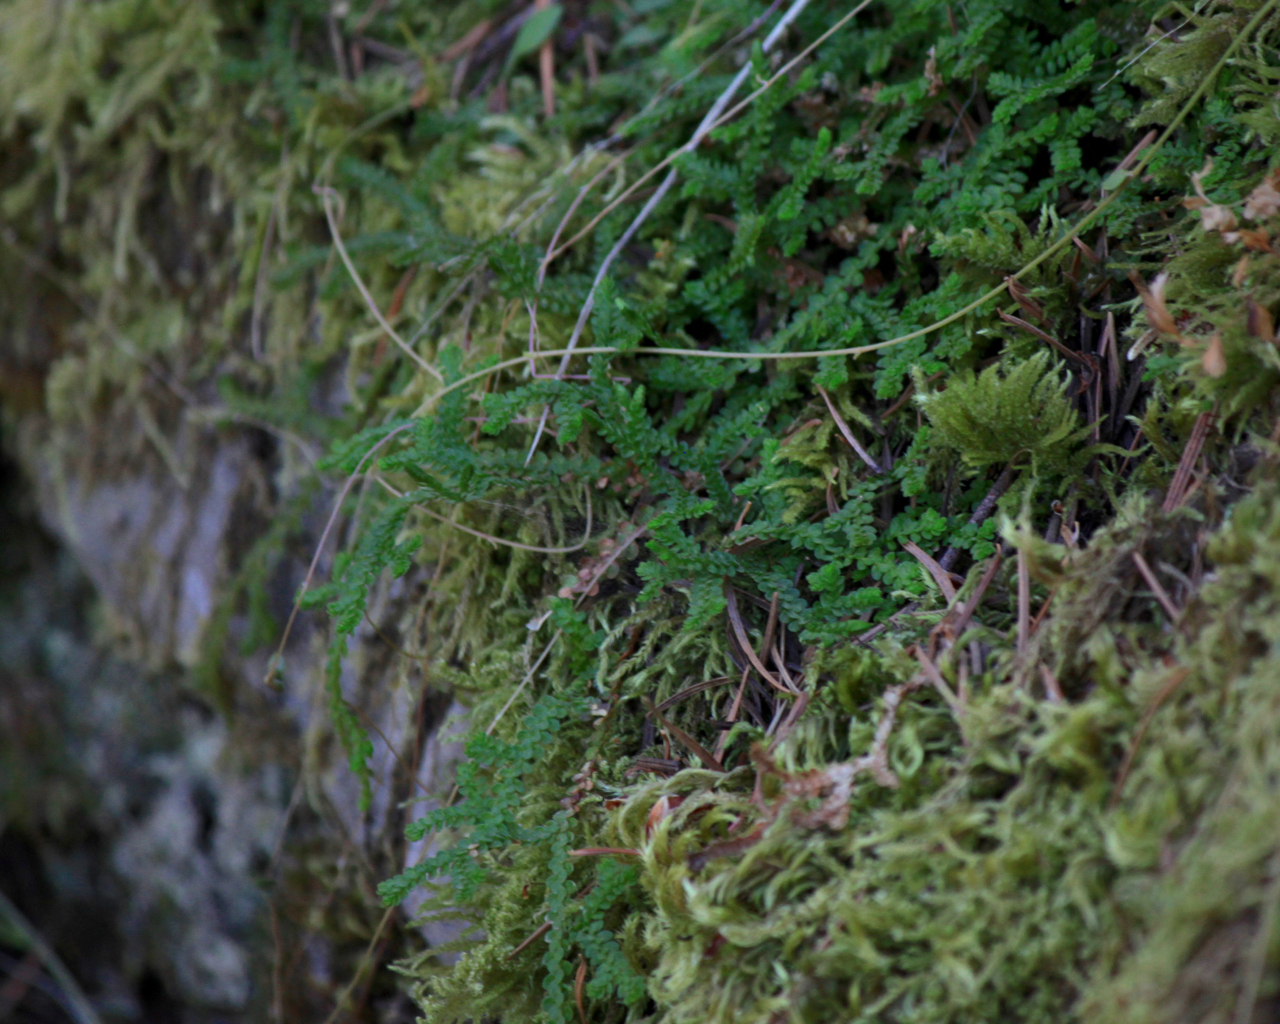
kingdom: Plantae
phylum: Tracheophyta
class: Lycopodiopsida
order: Selaginellales
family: Selaginellaceae
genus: Selaginella
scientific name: Selaginella douglasii
